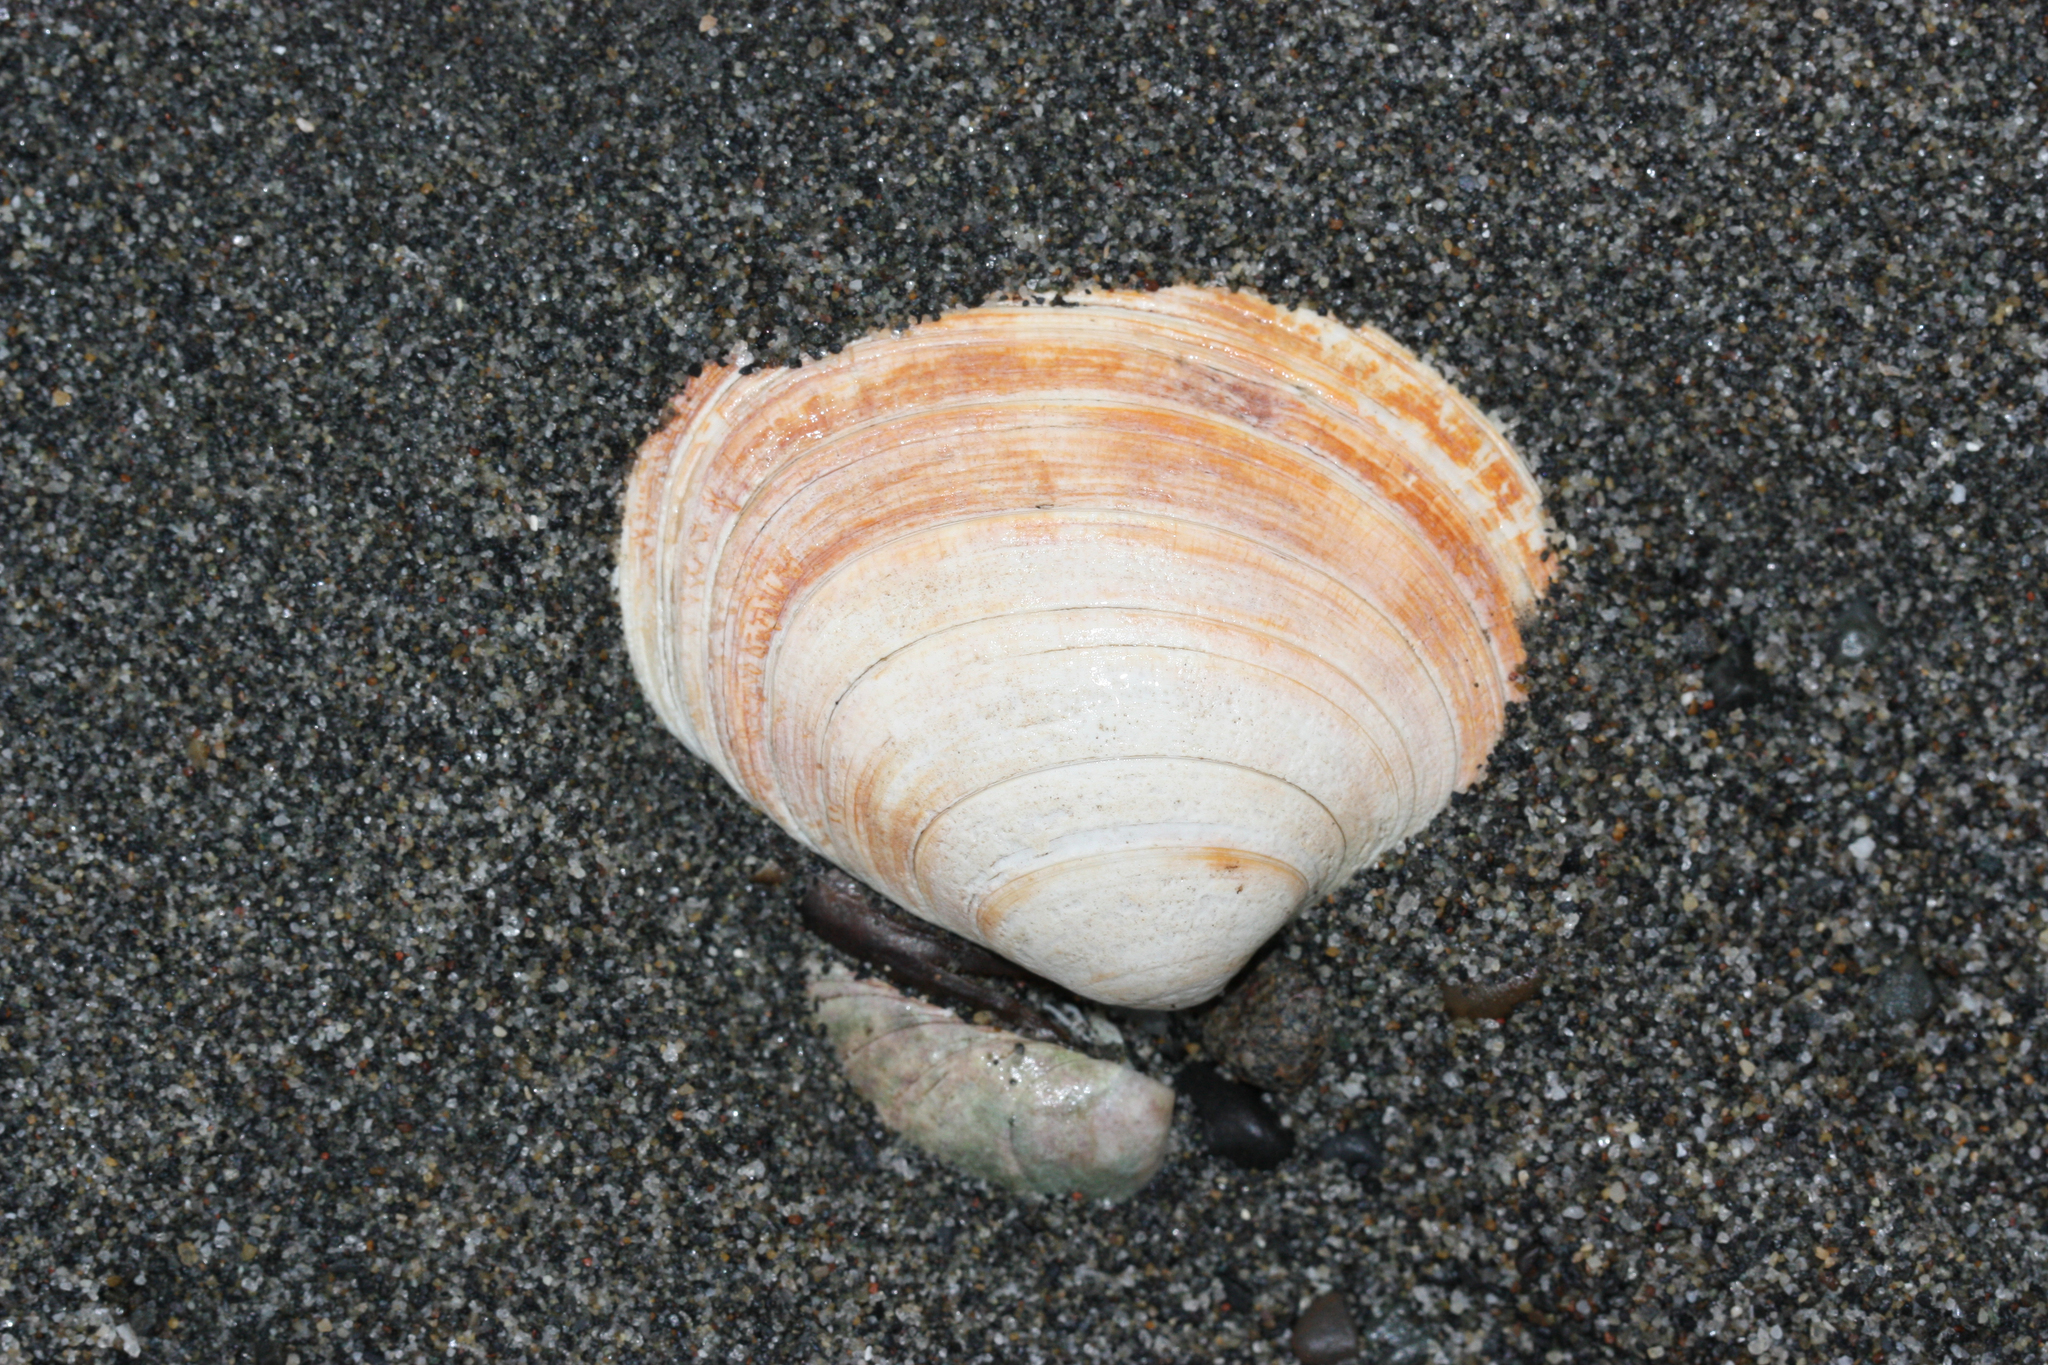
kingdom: Animalia
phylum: Mollusca
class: Bivalvia
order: Venerida
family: Veneridae
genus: Saxidomus
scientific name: Saxidomus gigantea
